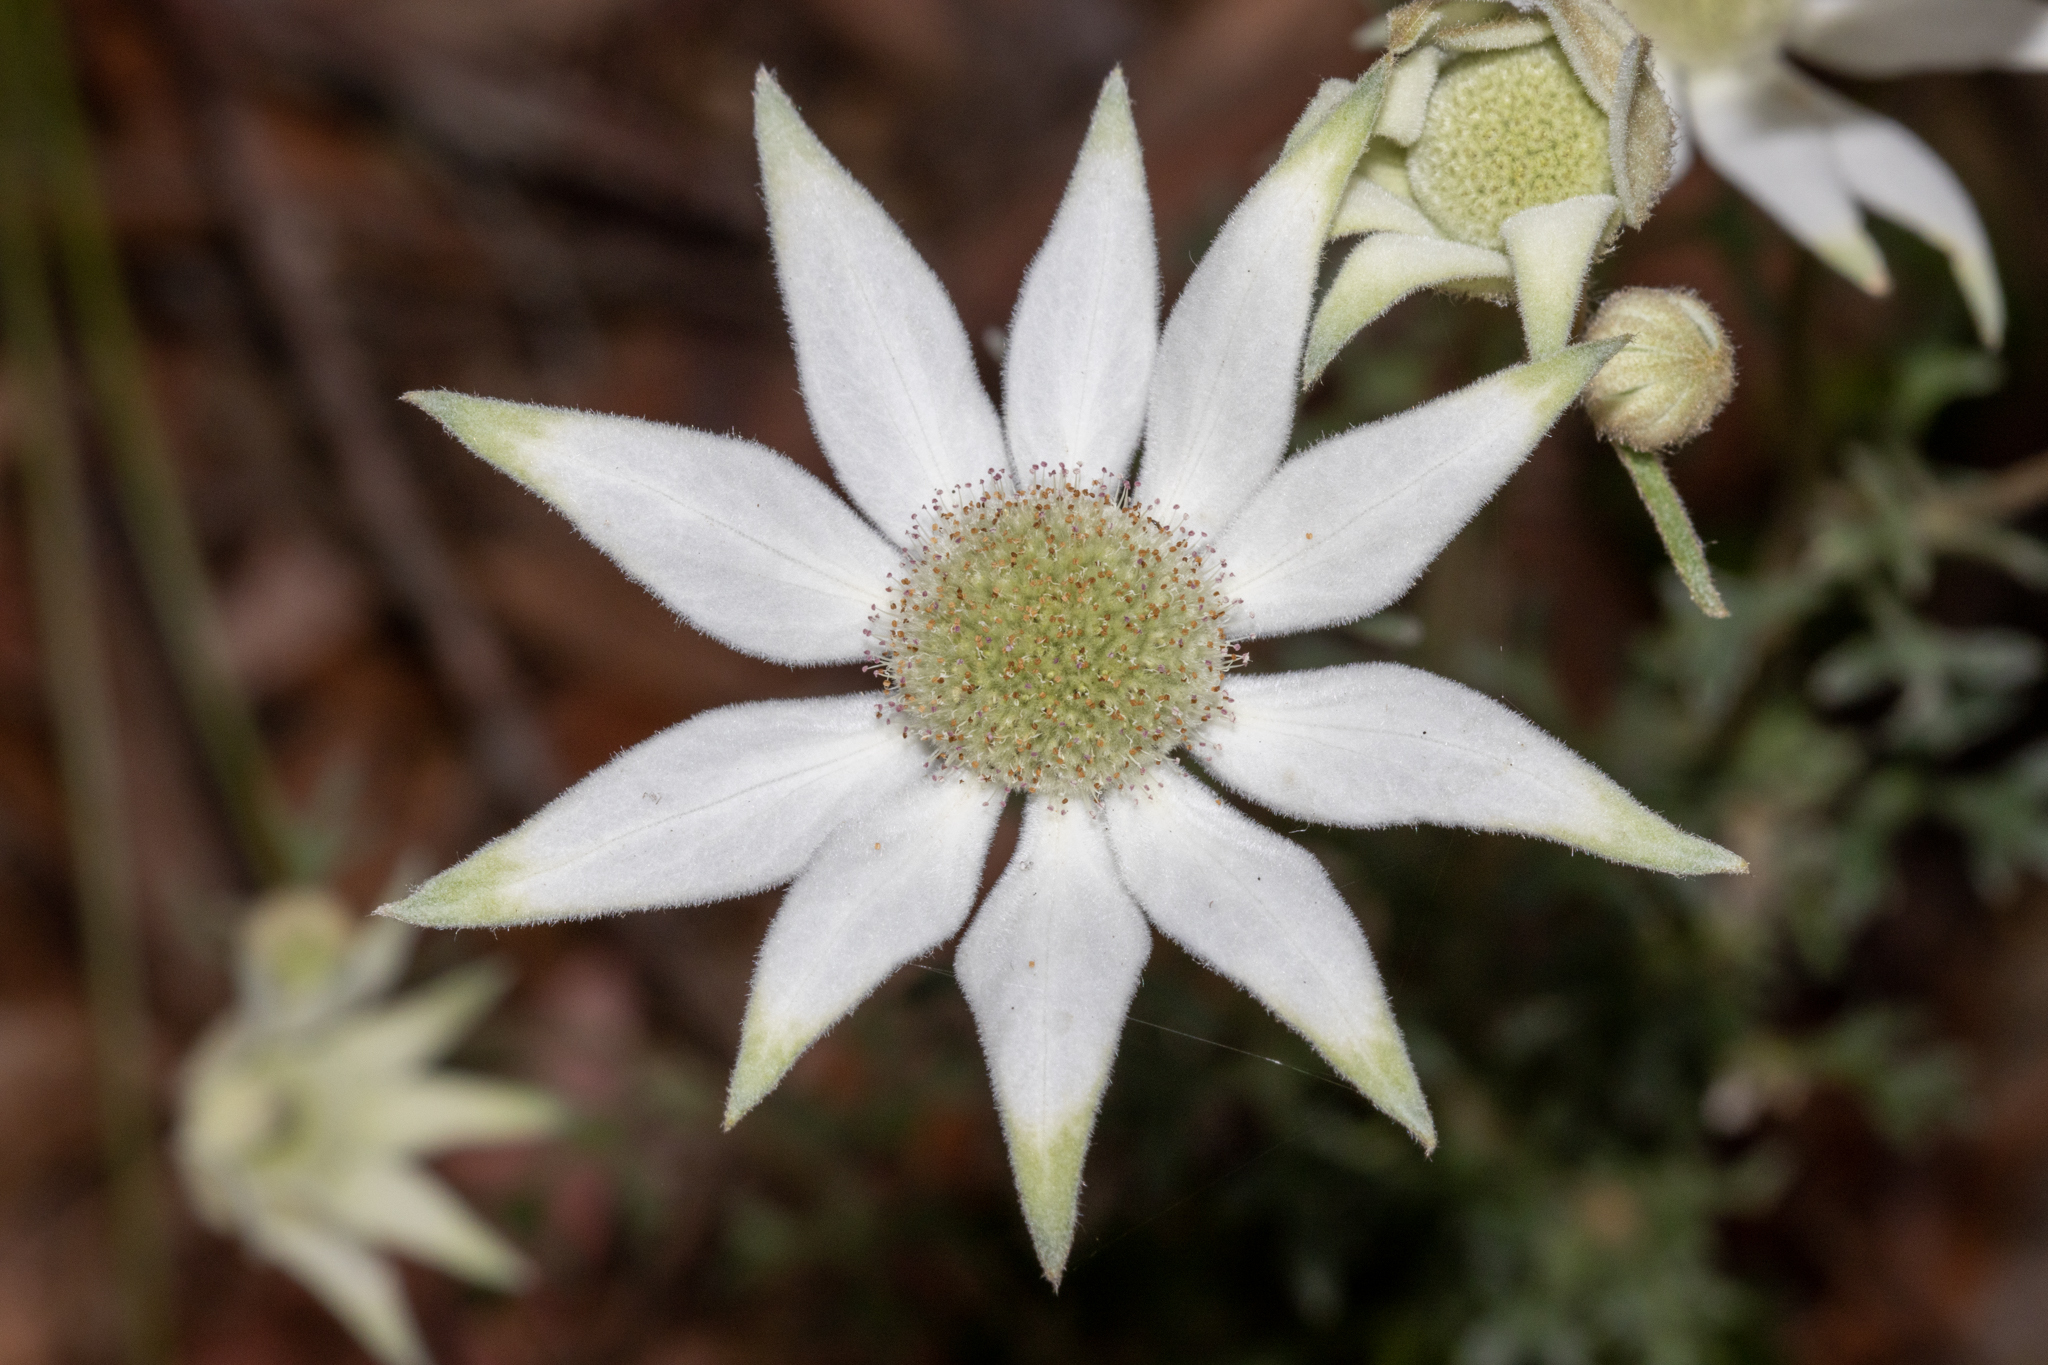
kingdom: Plantae
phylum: Tracheophyta
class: Magnoliopsida
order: Apiales
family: Apiaceae
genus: Actinotus
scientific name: Actinotus helianthi
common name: Flannel-flower
